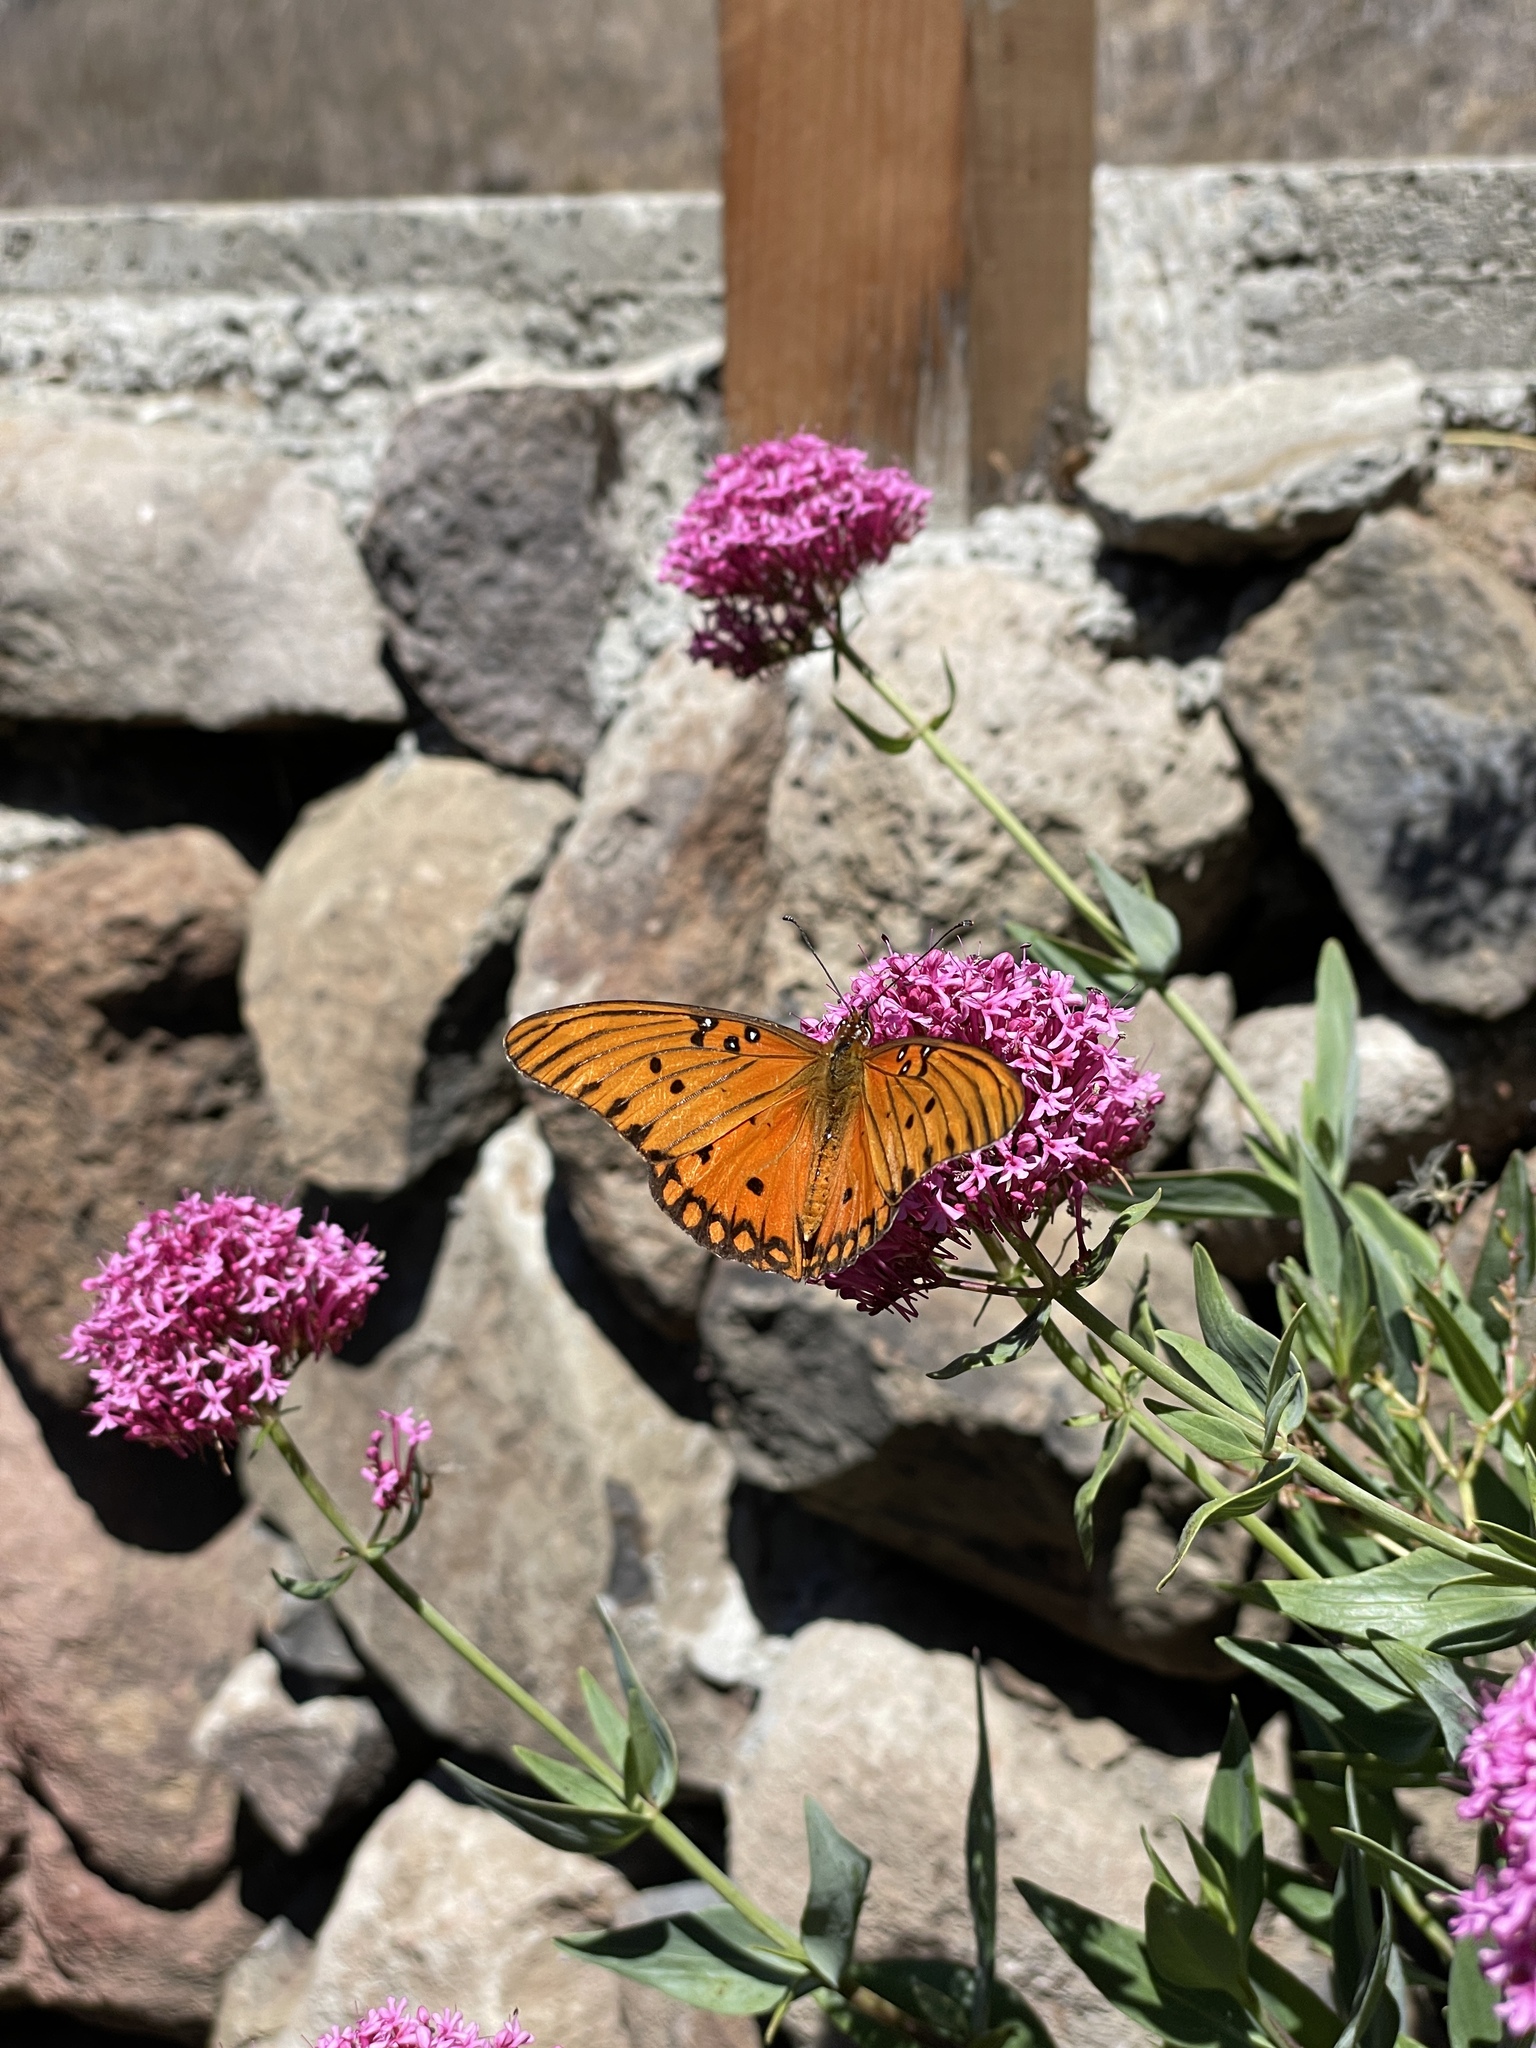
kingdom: Animalia
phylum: Arthropoda
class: Insecta
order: Lepidoptera
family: Nymphalidae
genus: Dione
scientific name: Dione vanillae
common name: Gulf fritillary
